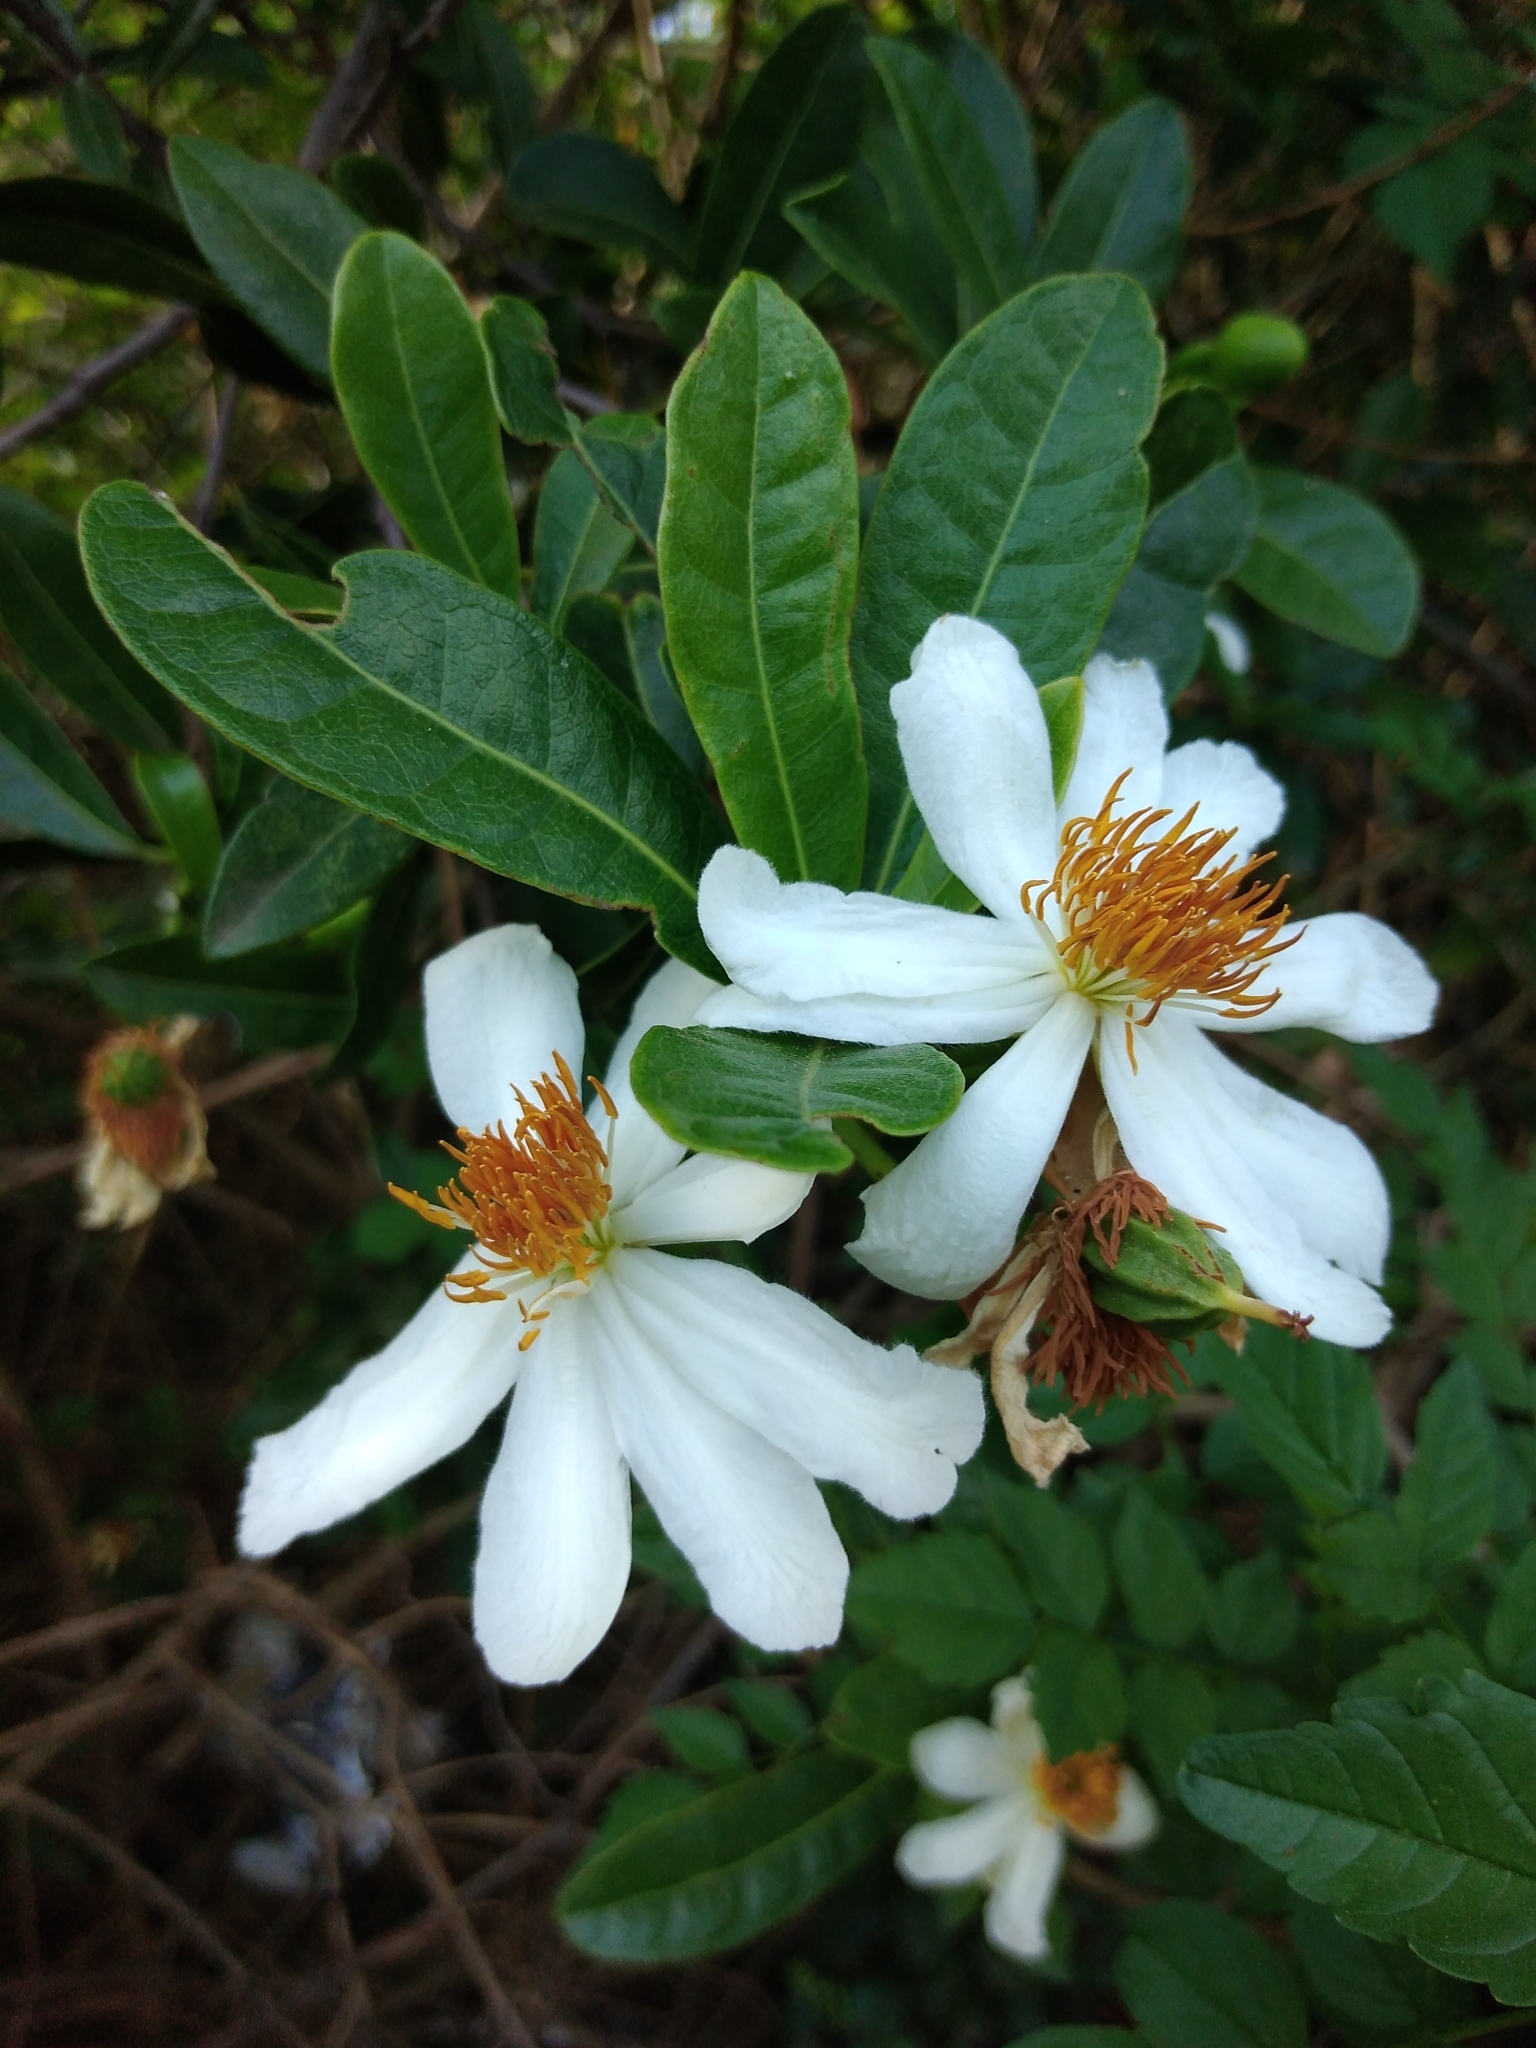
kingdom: Plantae
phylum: Tracheophyta
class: Magnoliopsida
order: Malpighiales
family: Achariaceae
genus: Xylotheca
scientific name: Xylotheca kraussiana
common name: African dog rose
